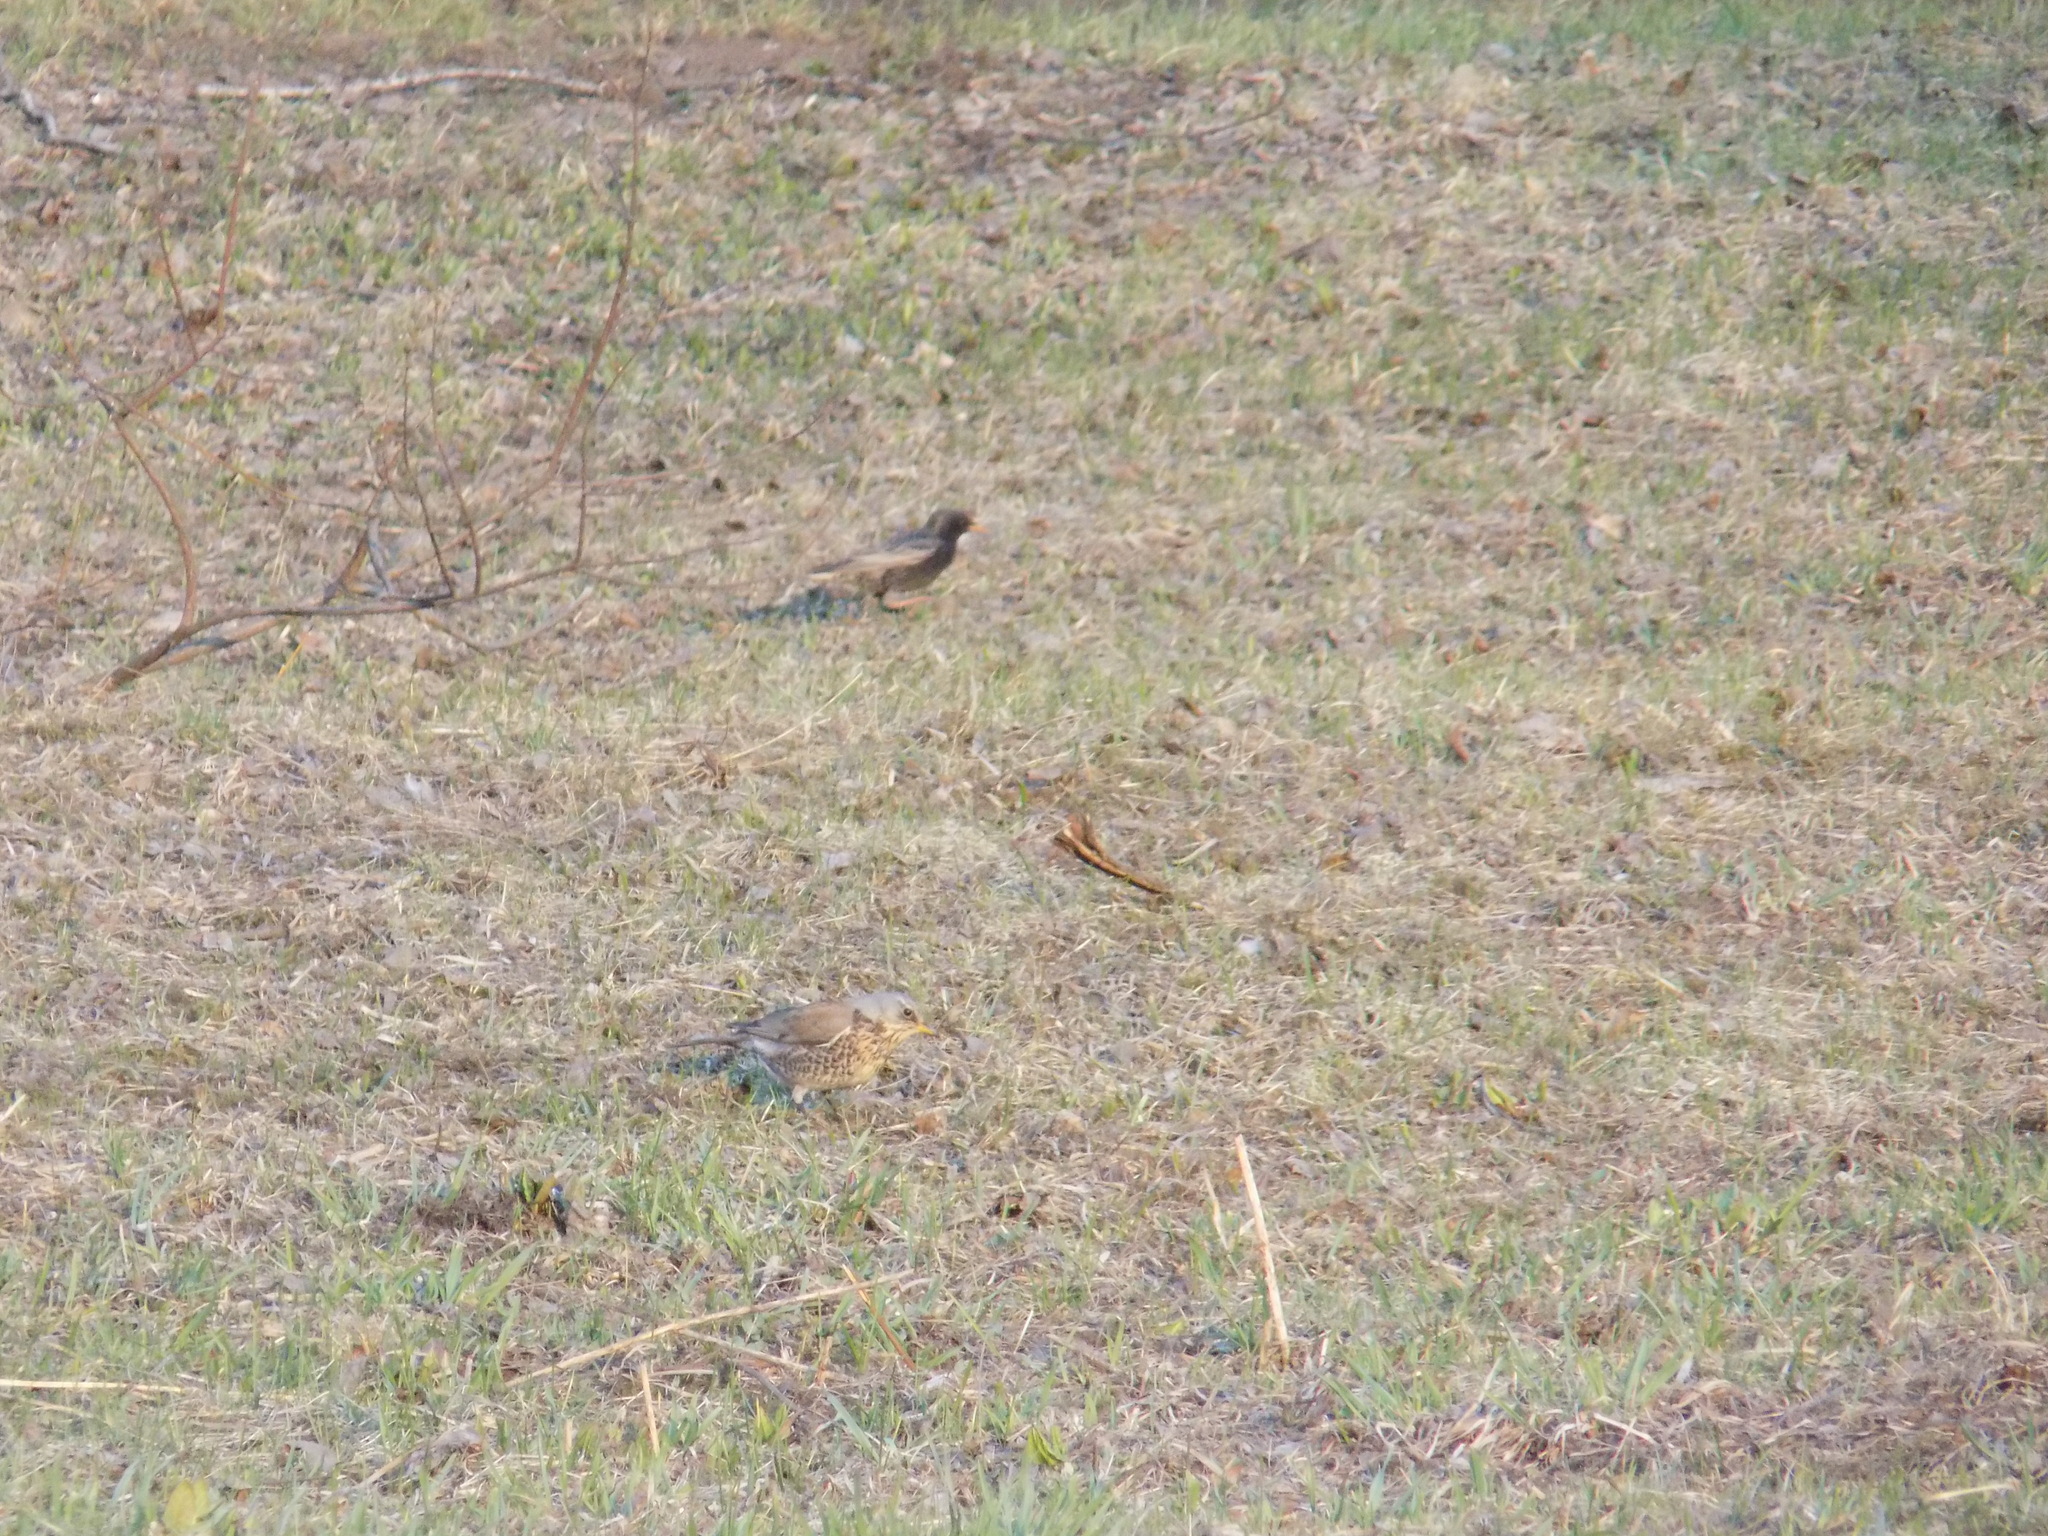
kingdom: Animalia
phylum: Chordata
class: Aves
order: Passeriformes
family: Sturnidae
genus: Sturnus
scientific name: Sturnus vulgaris
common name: Common starling
